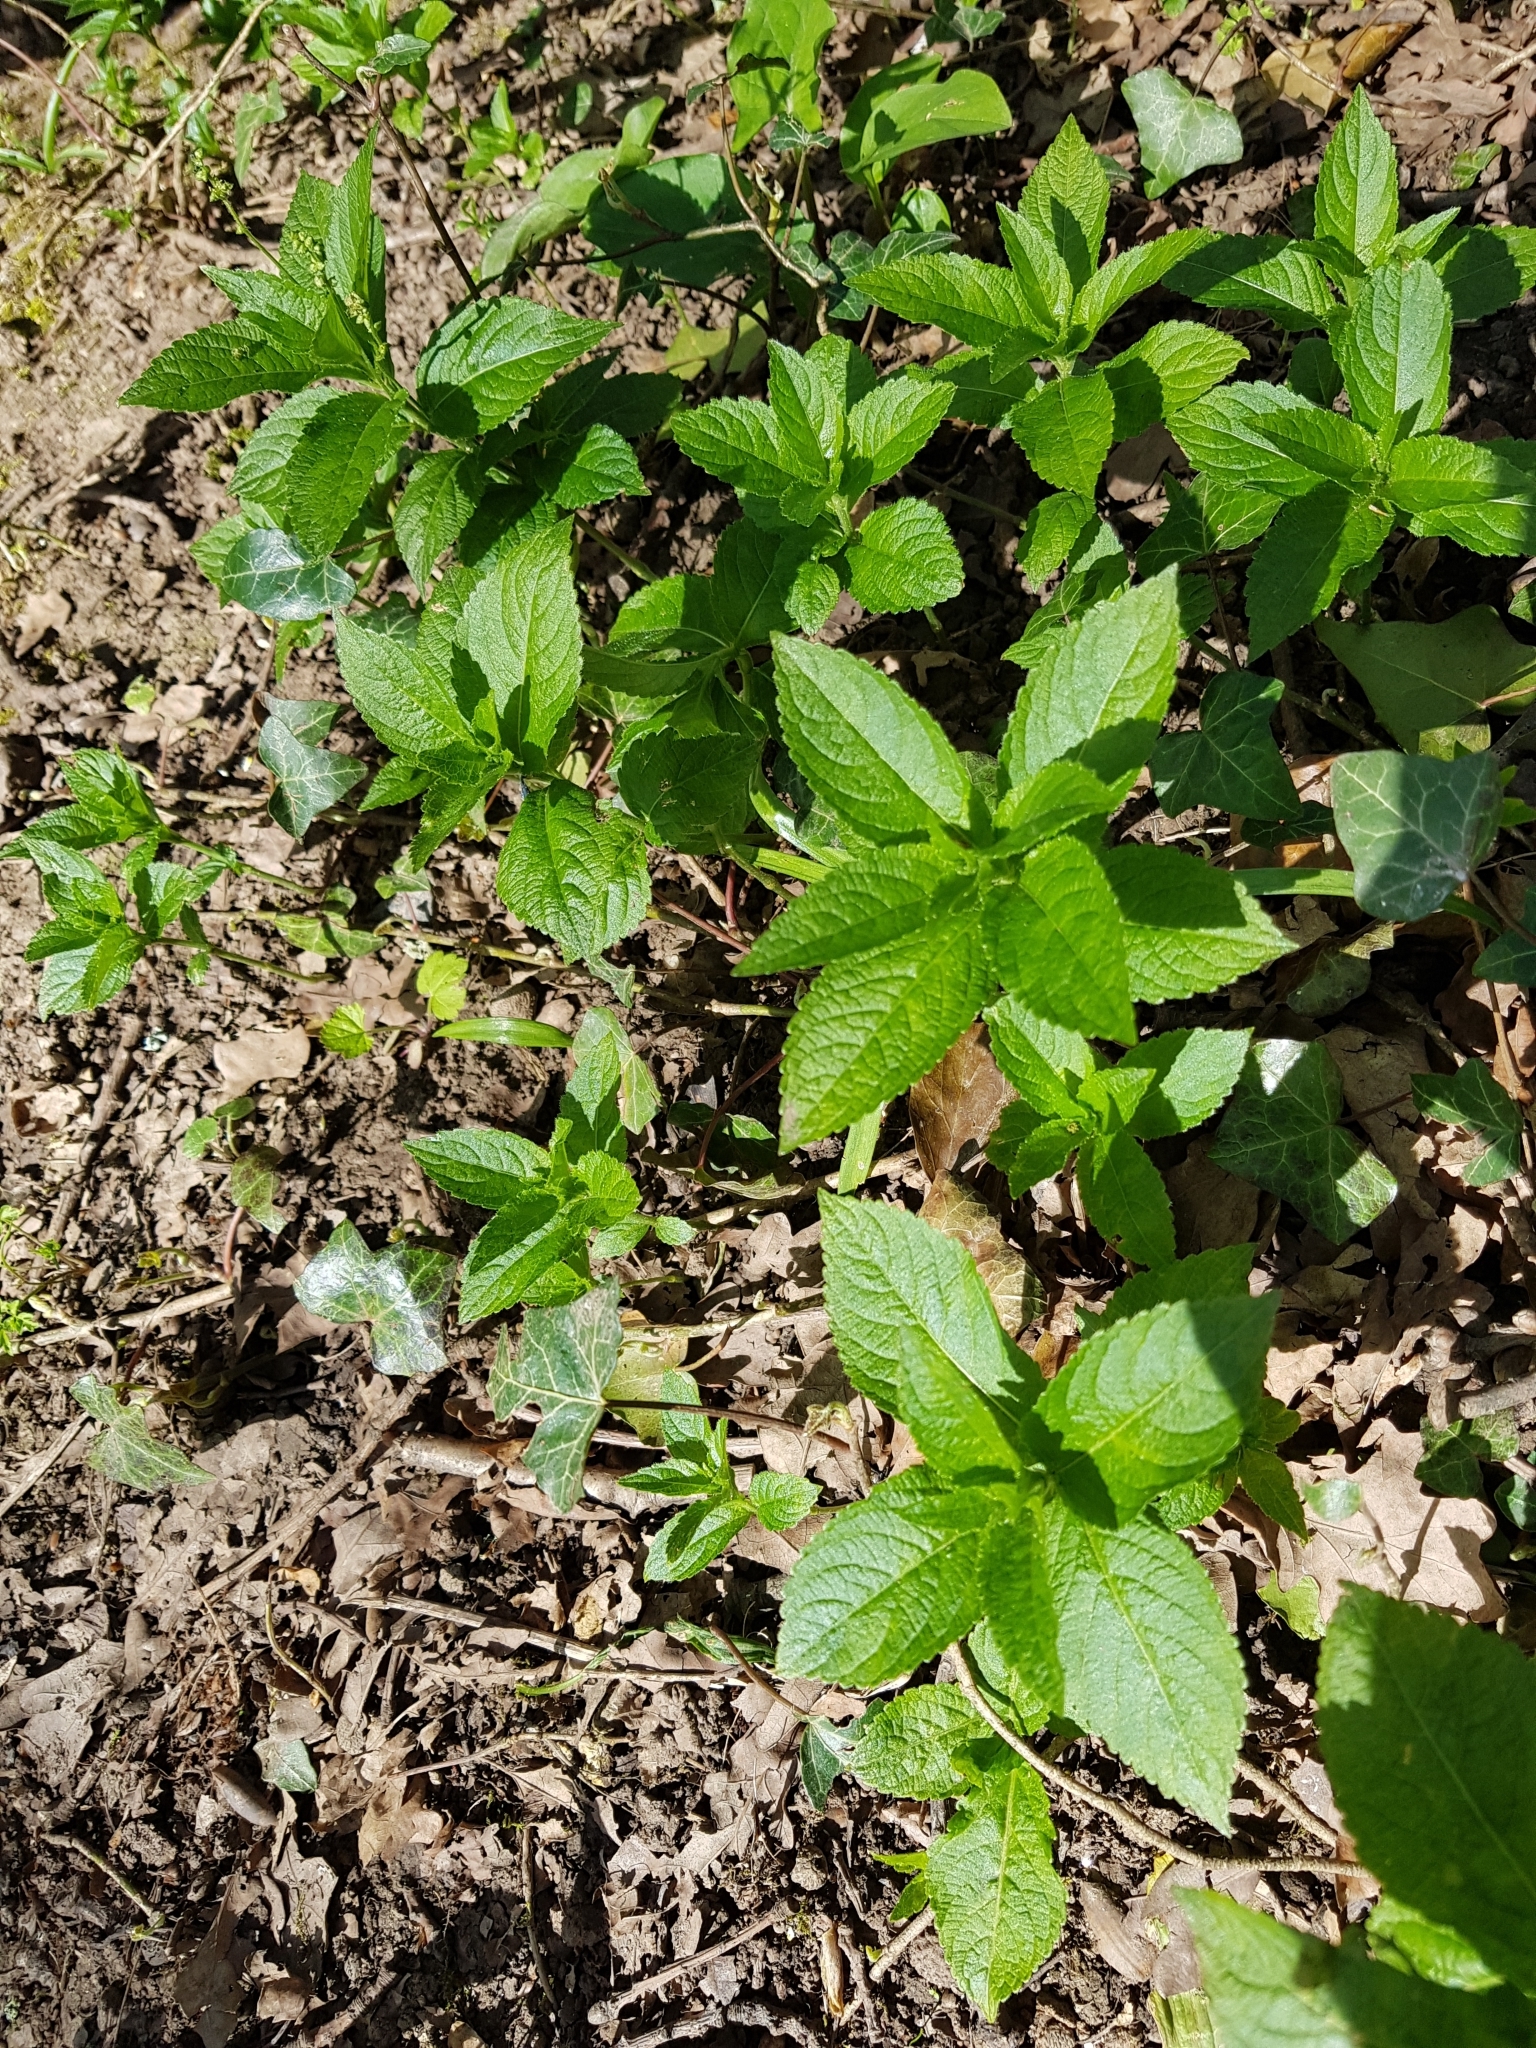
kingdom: Plantae
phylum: Tracheophyta
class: Magnoliopsida
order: Malpighiales
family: Euphorbiaceae
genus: Mercurialis
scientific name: Mercurialis perennis
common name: Dog mercury
